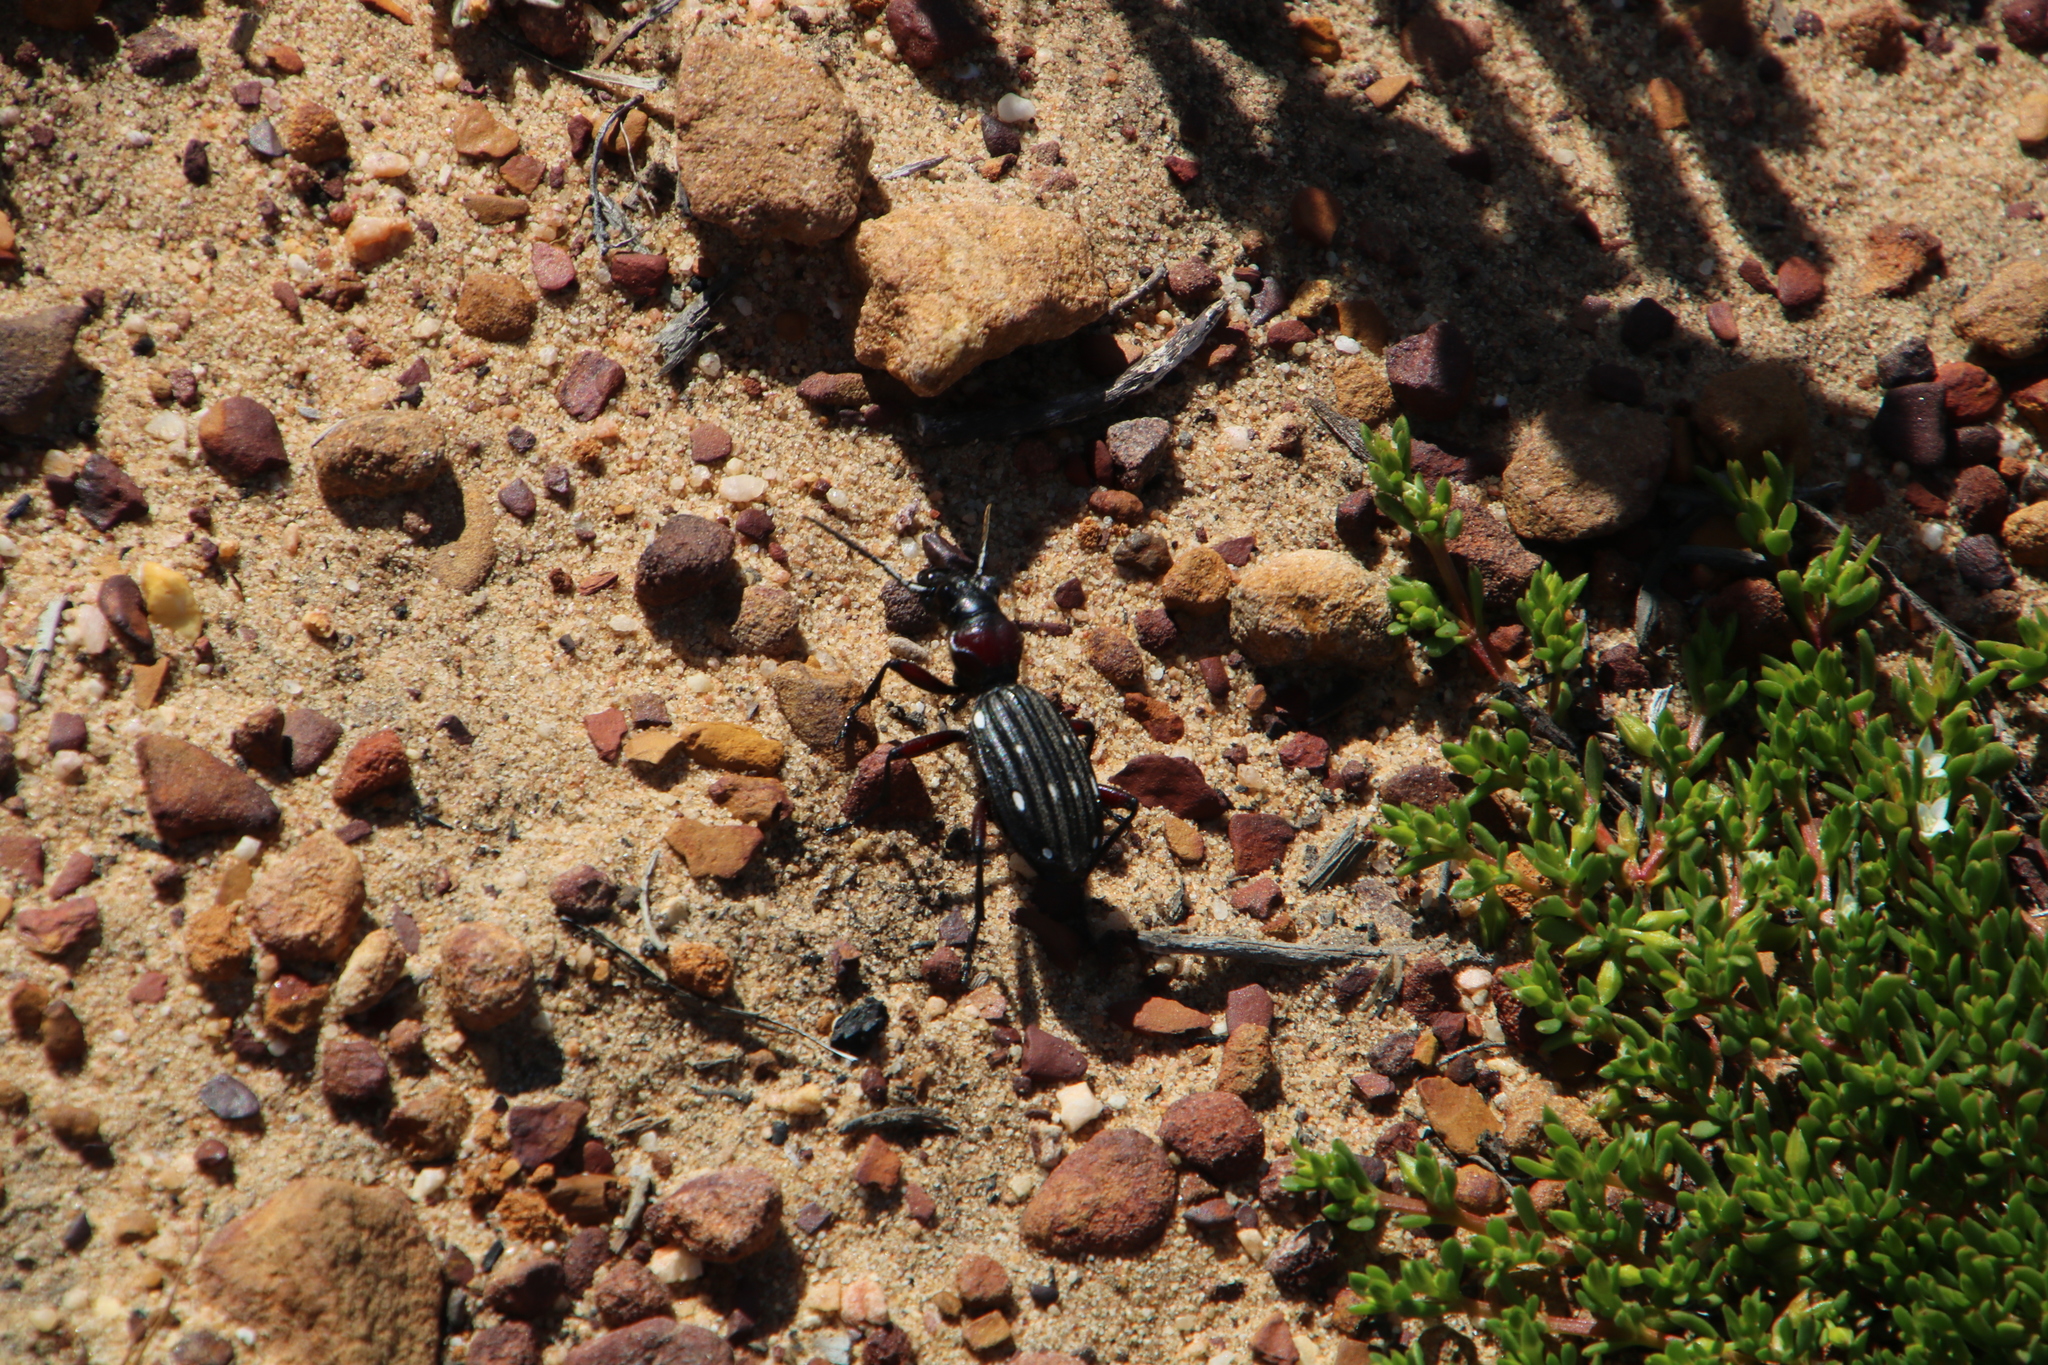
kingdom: Animalia
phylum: Arthropoda
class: Insecta
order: Coleoptera
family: Carabidae
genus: Anthia
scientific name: Anthia decemguttata
